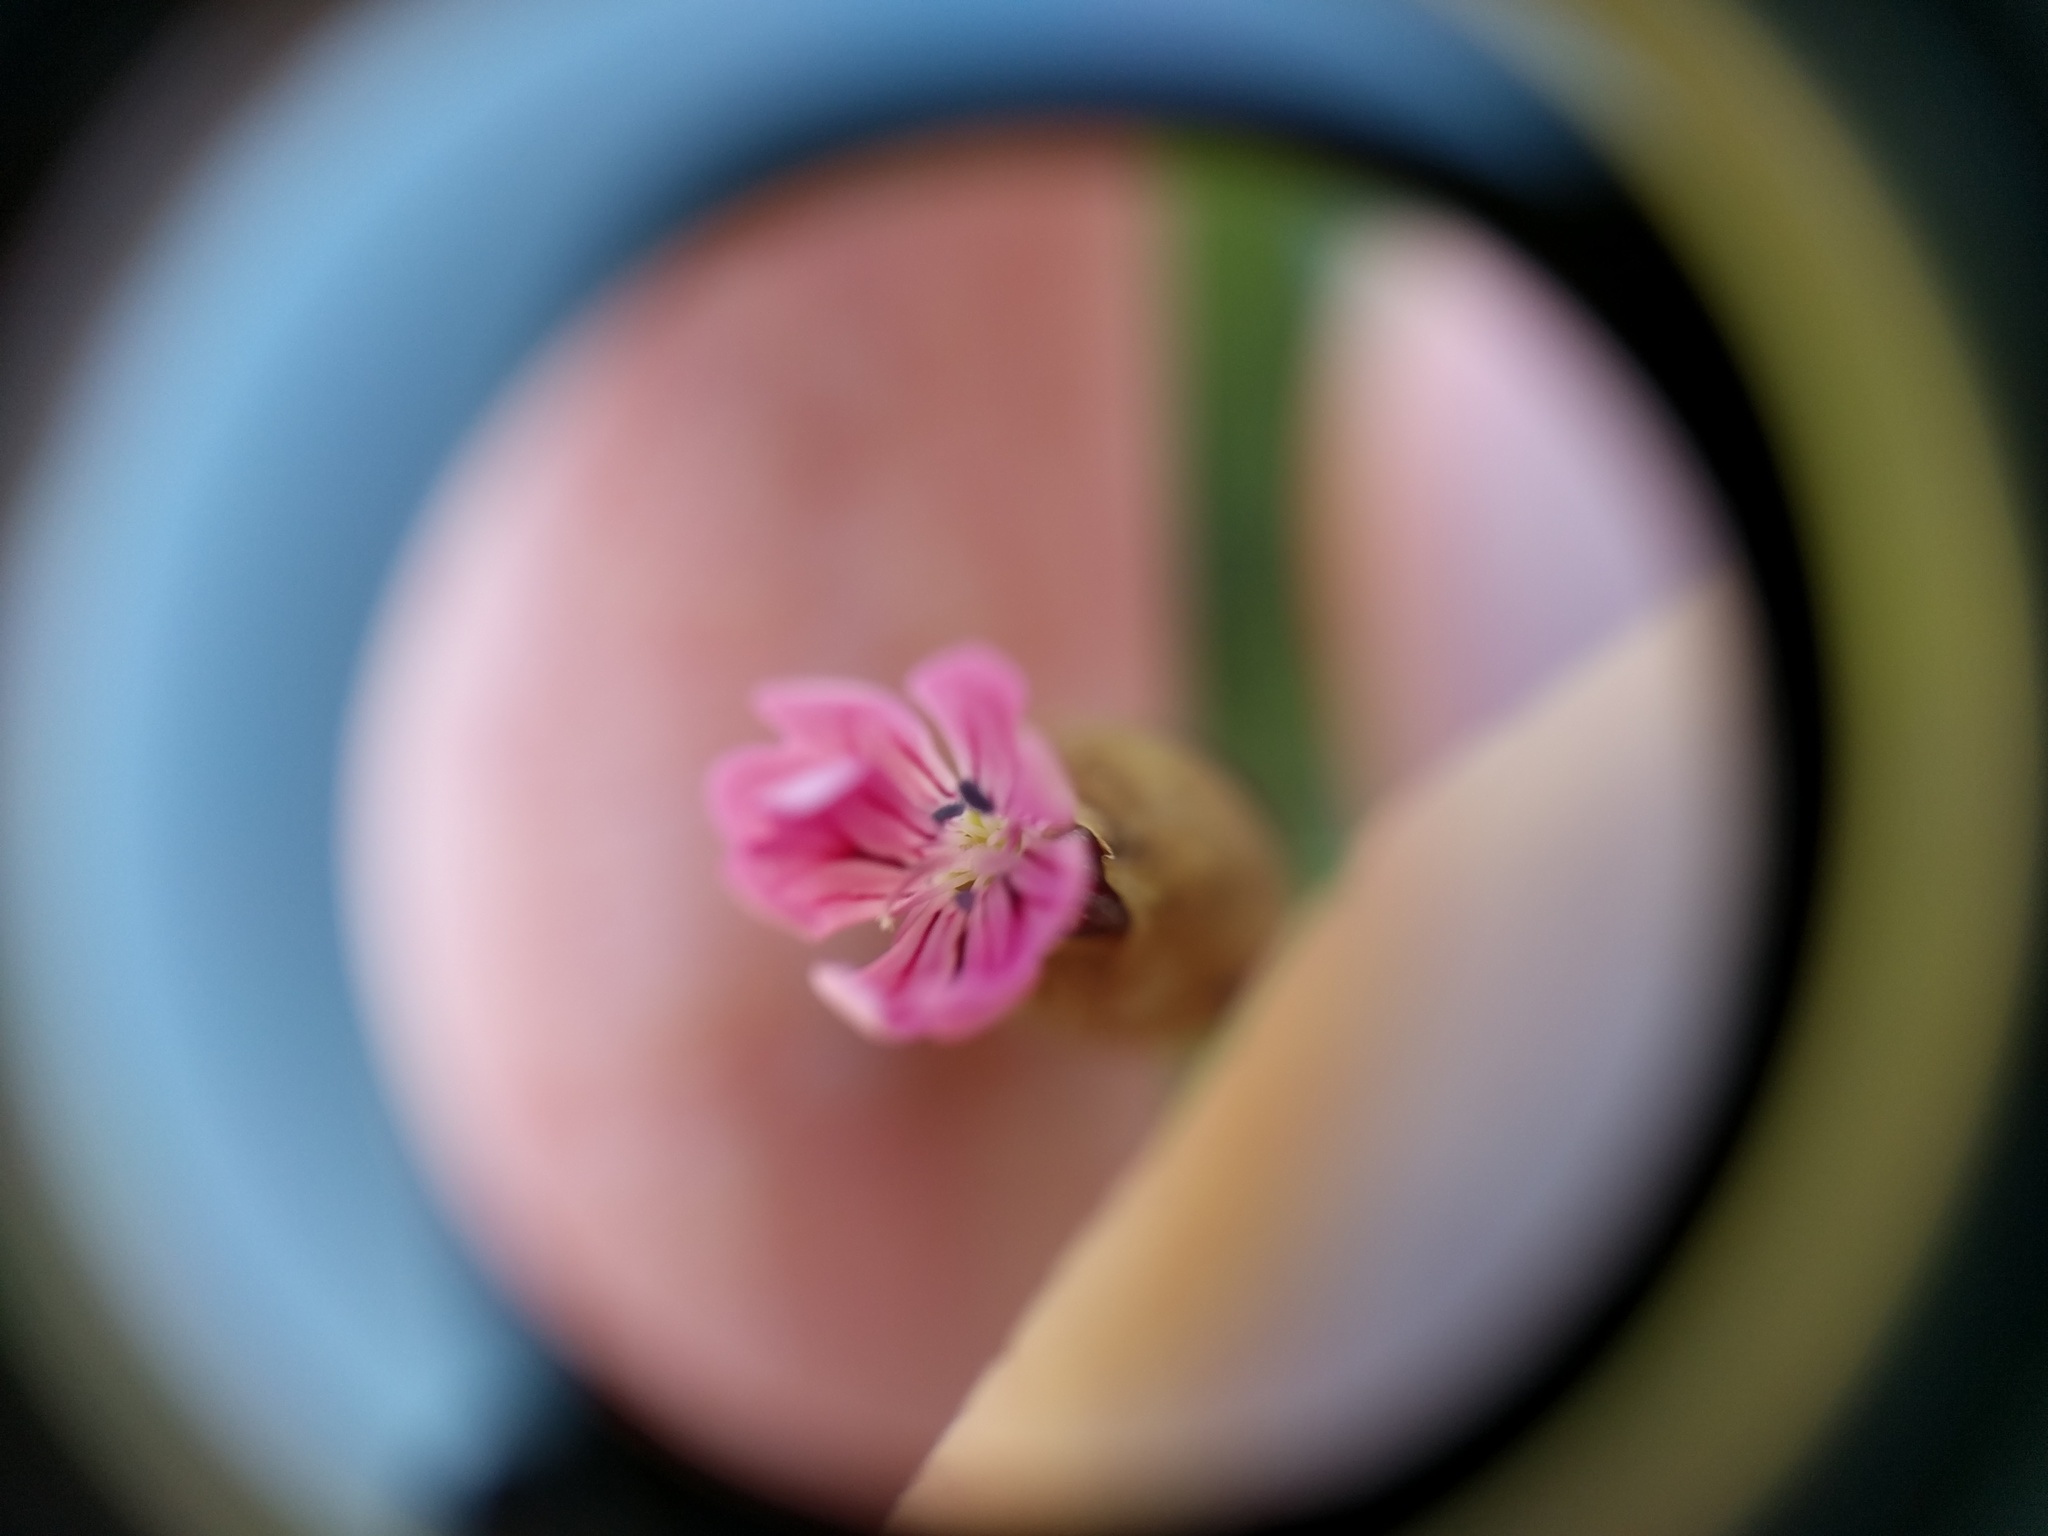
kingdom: Plantae
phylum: Tracheophyta
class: Magnoliopsida
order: Caryophyllales
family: Caryophyllaceae
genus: Petrorhagia
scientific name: Petrorhagia dubia
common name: Hairypink
